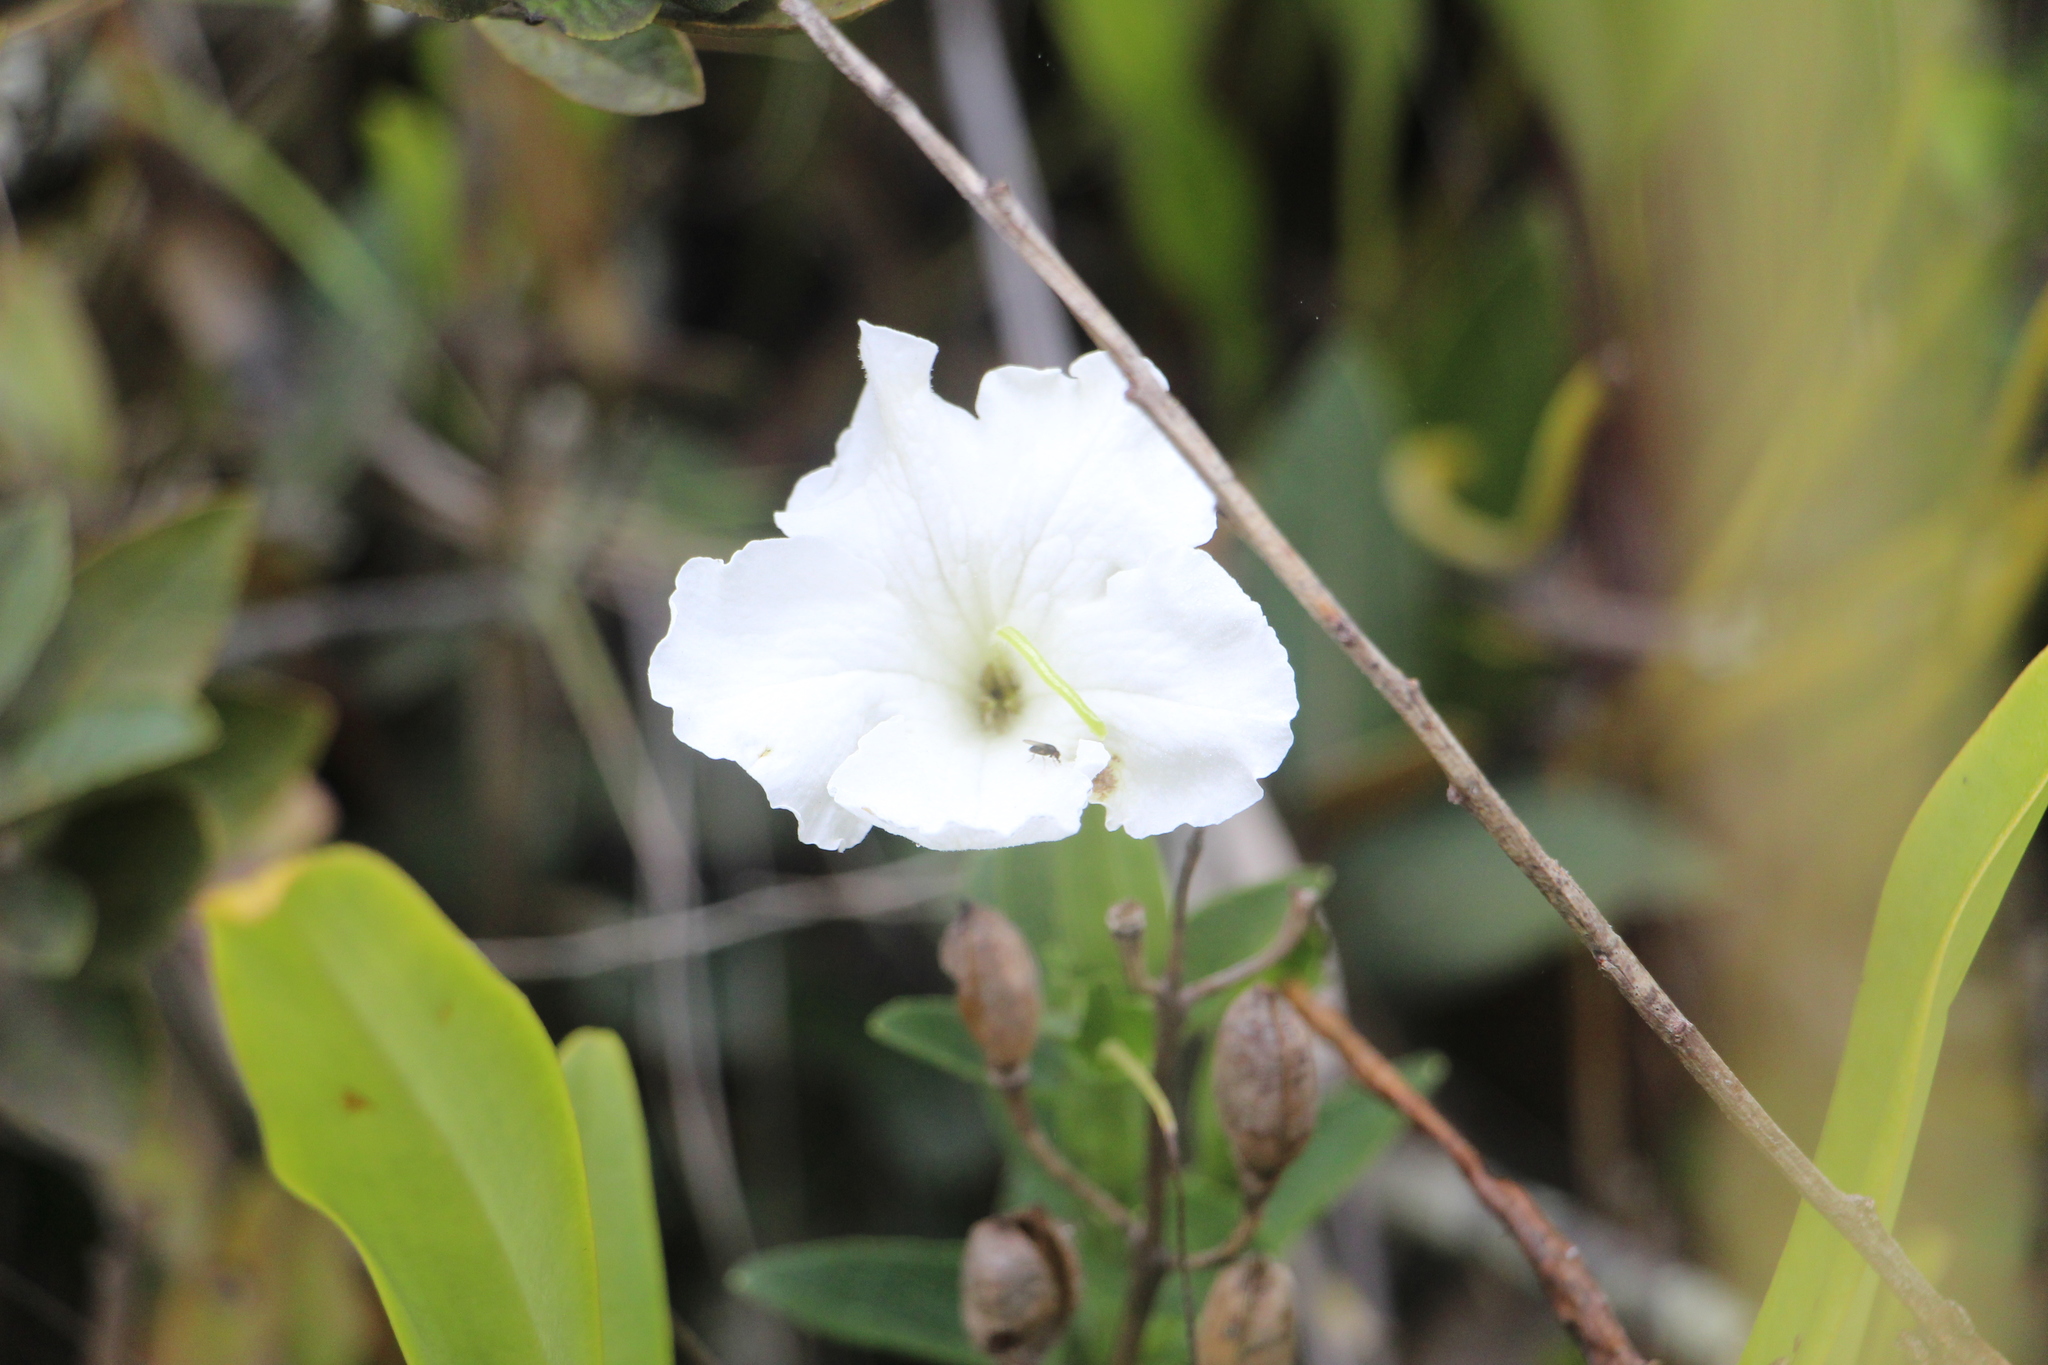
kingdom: Plantae
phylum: Tracheophyta
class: Magnoliopsida
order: Lamiales
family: Orobanchaceae
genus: Escobedia
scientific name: Escobedia grandiflora
